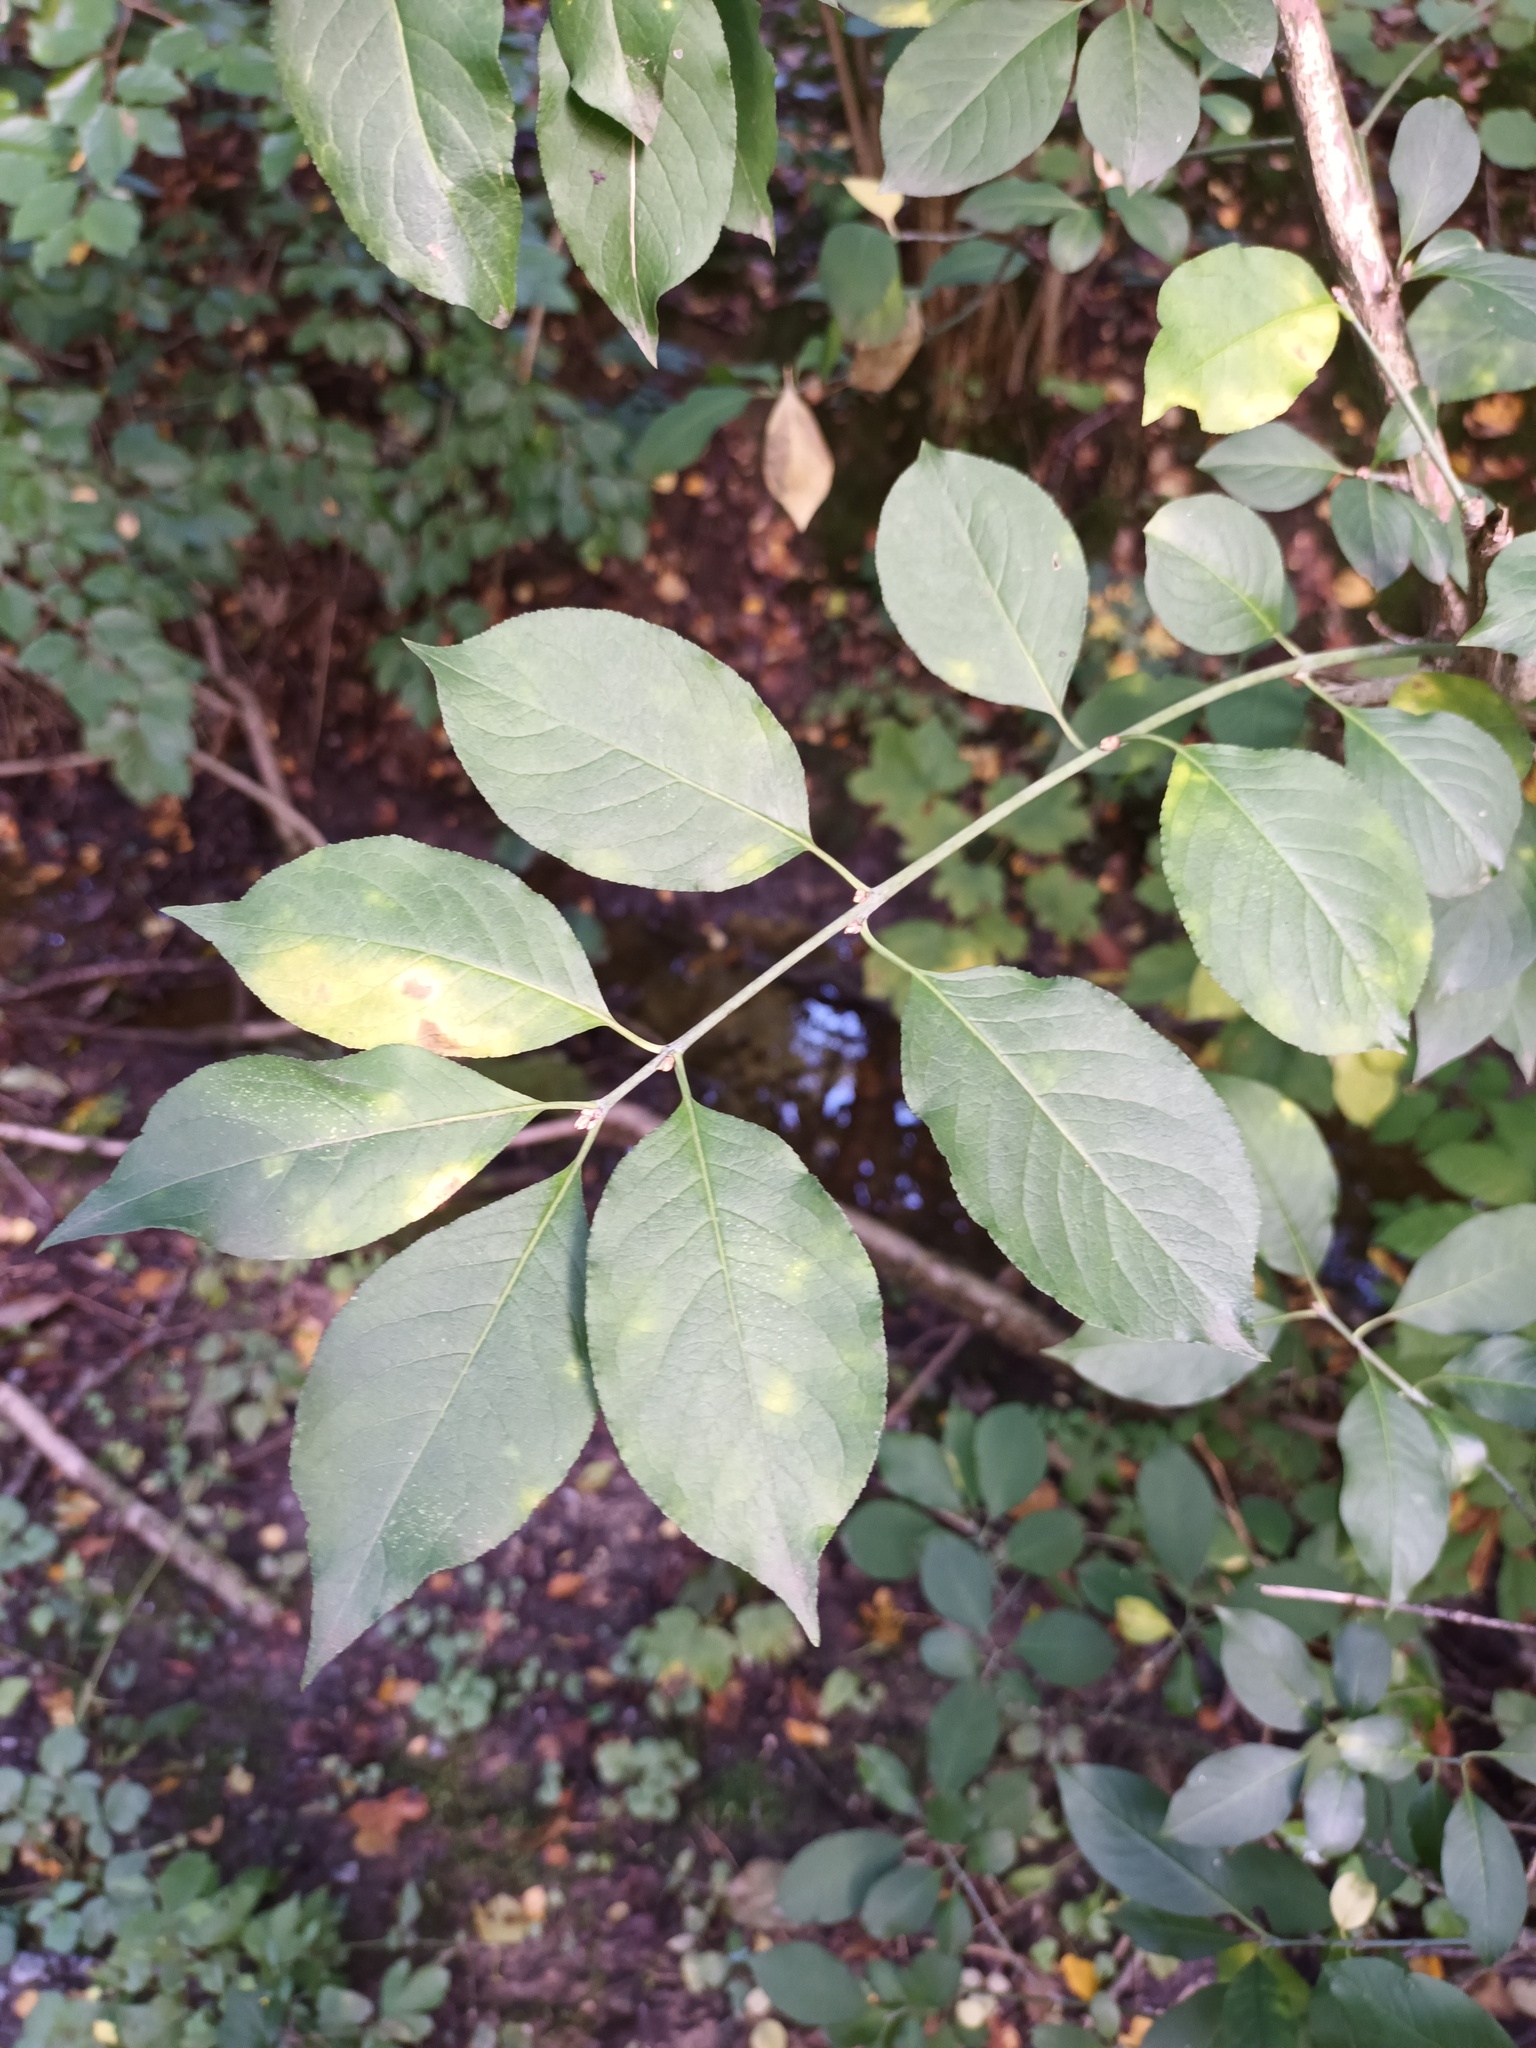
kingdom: Plantae
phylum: Tracheophyta
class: Magnoliopsida
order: Celastrales
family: Celastraceae
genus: Euonymus
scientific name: Euonymus europaeus
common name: Spindle
